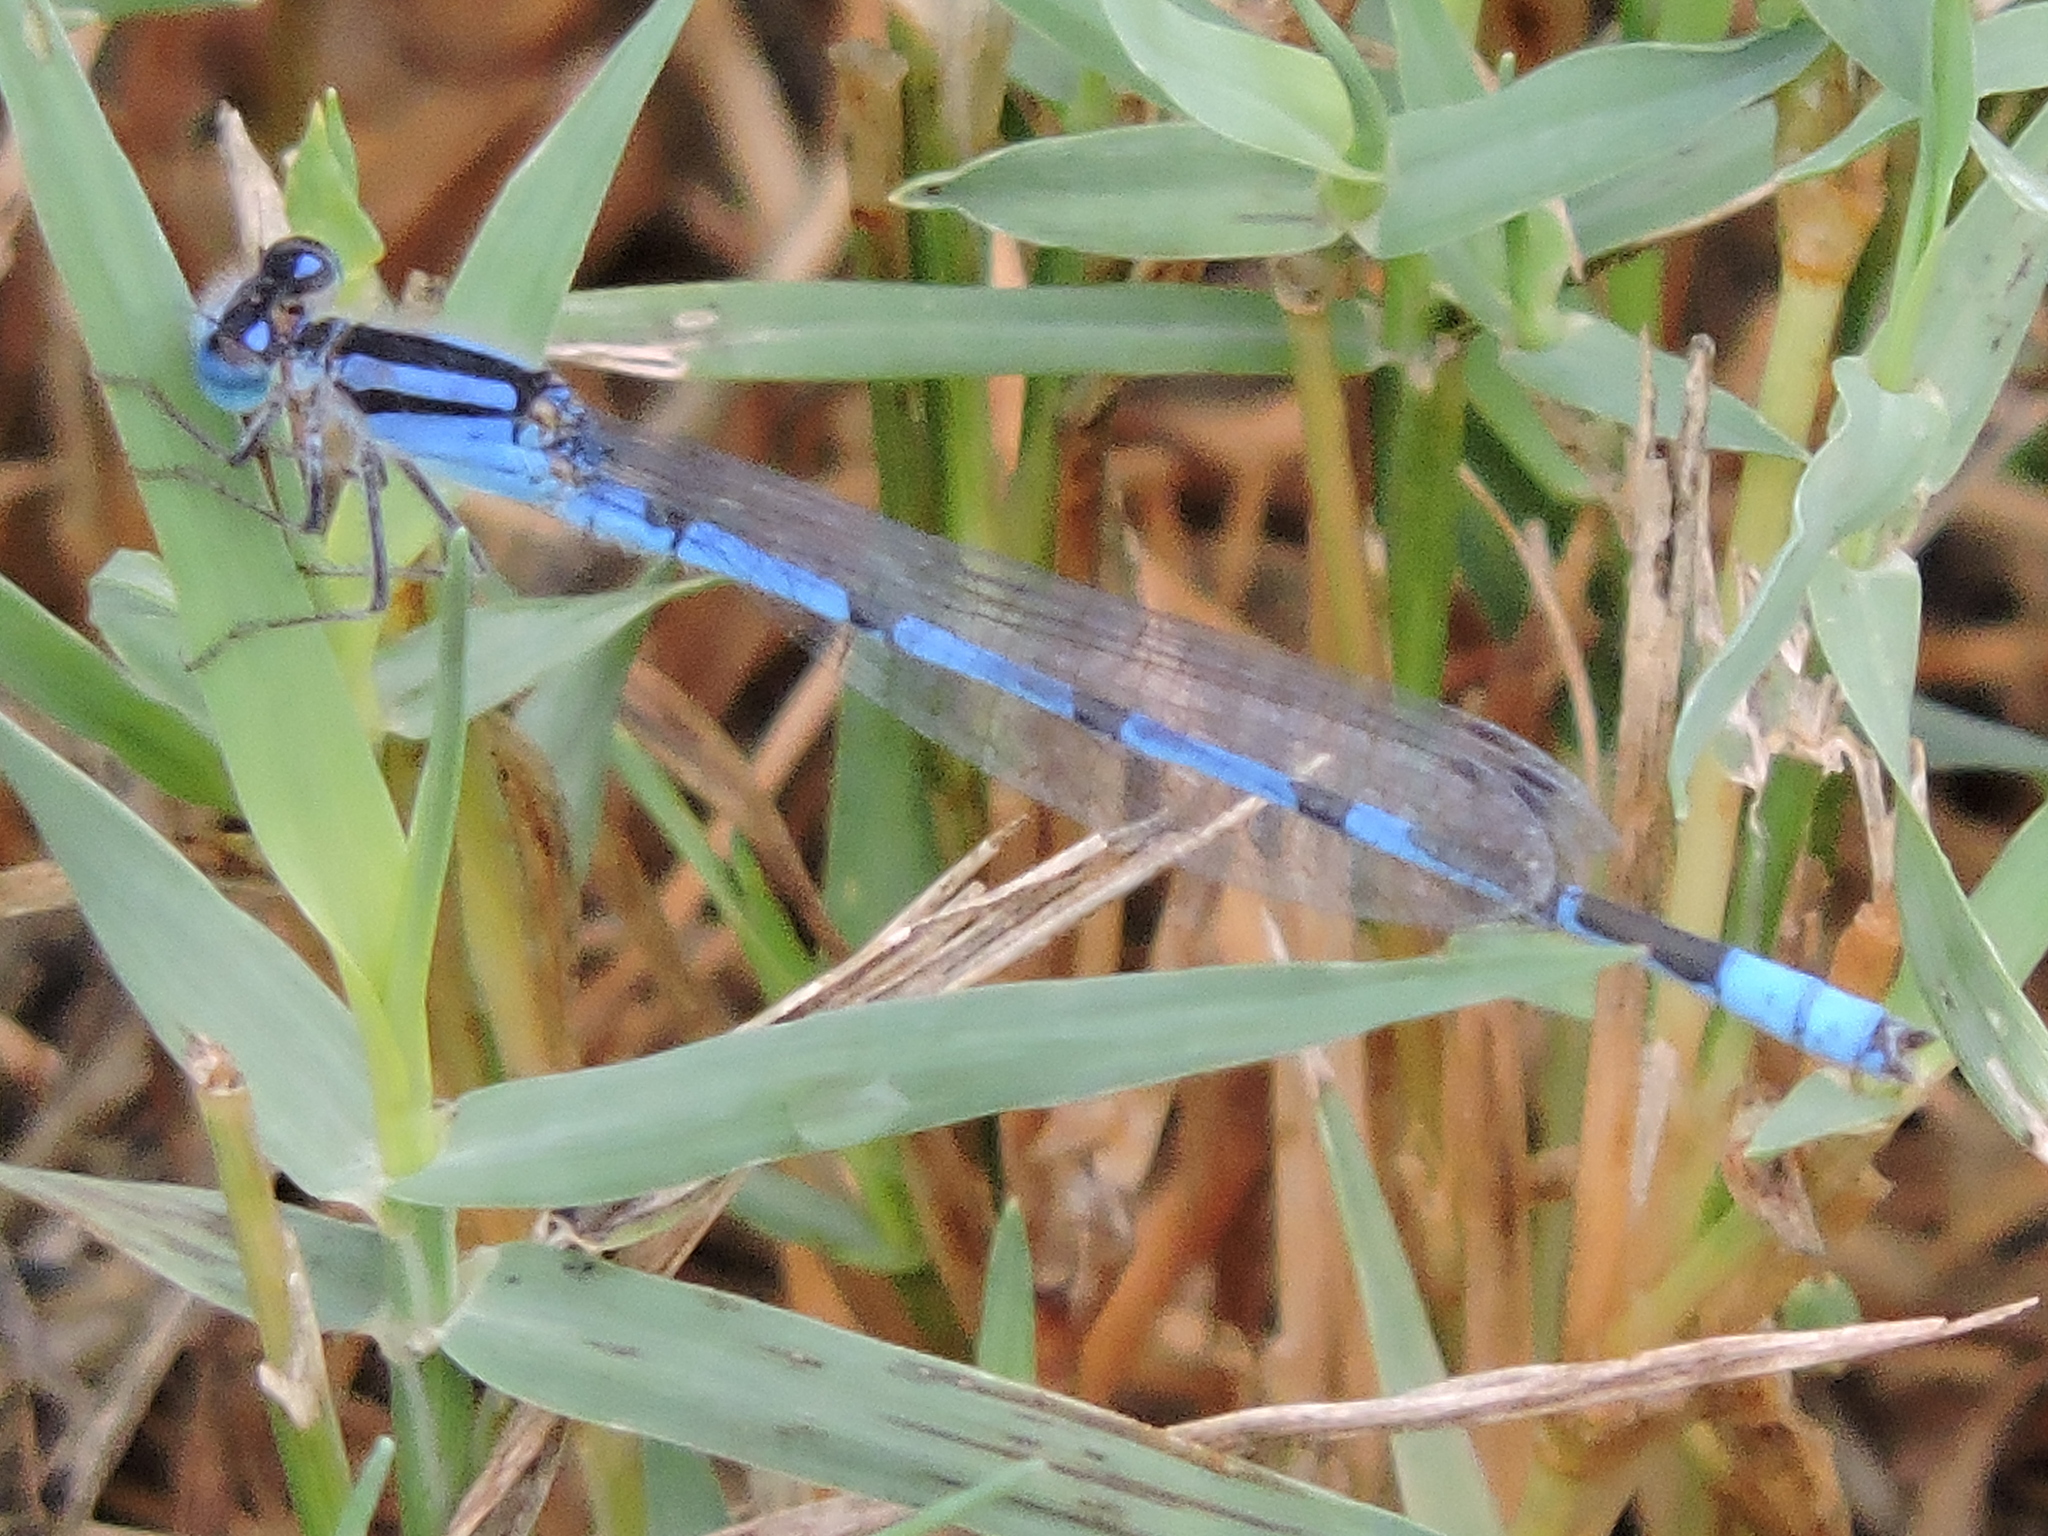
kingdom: Animalia
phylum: Arthropoda
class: Insecta
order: Odonata
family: Coenagrionidae
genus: Enallagma
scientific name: Enallagma civile
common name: Damselfly
